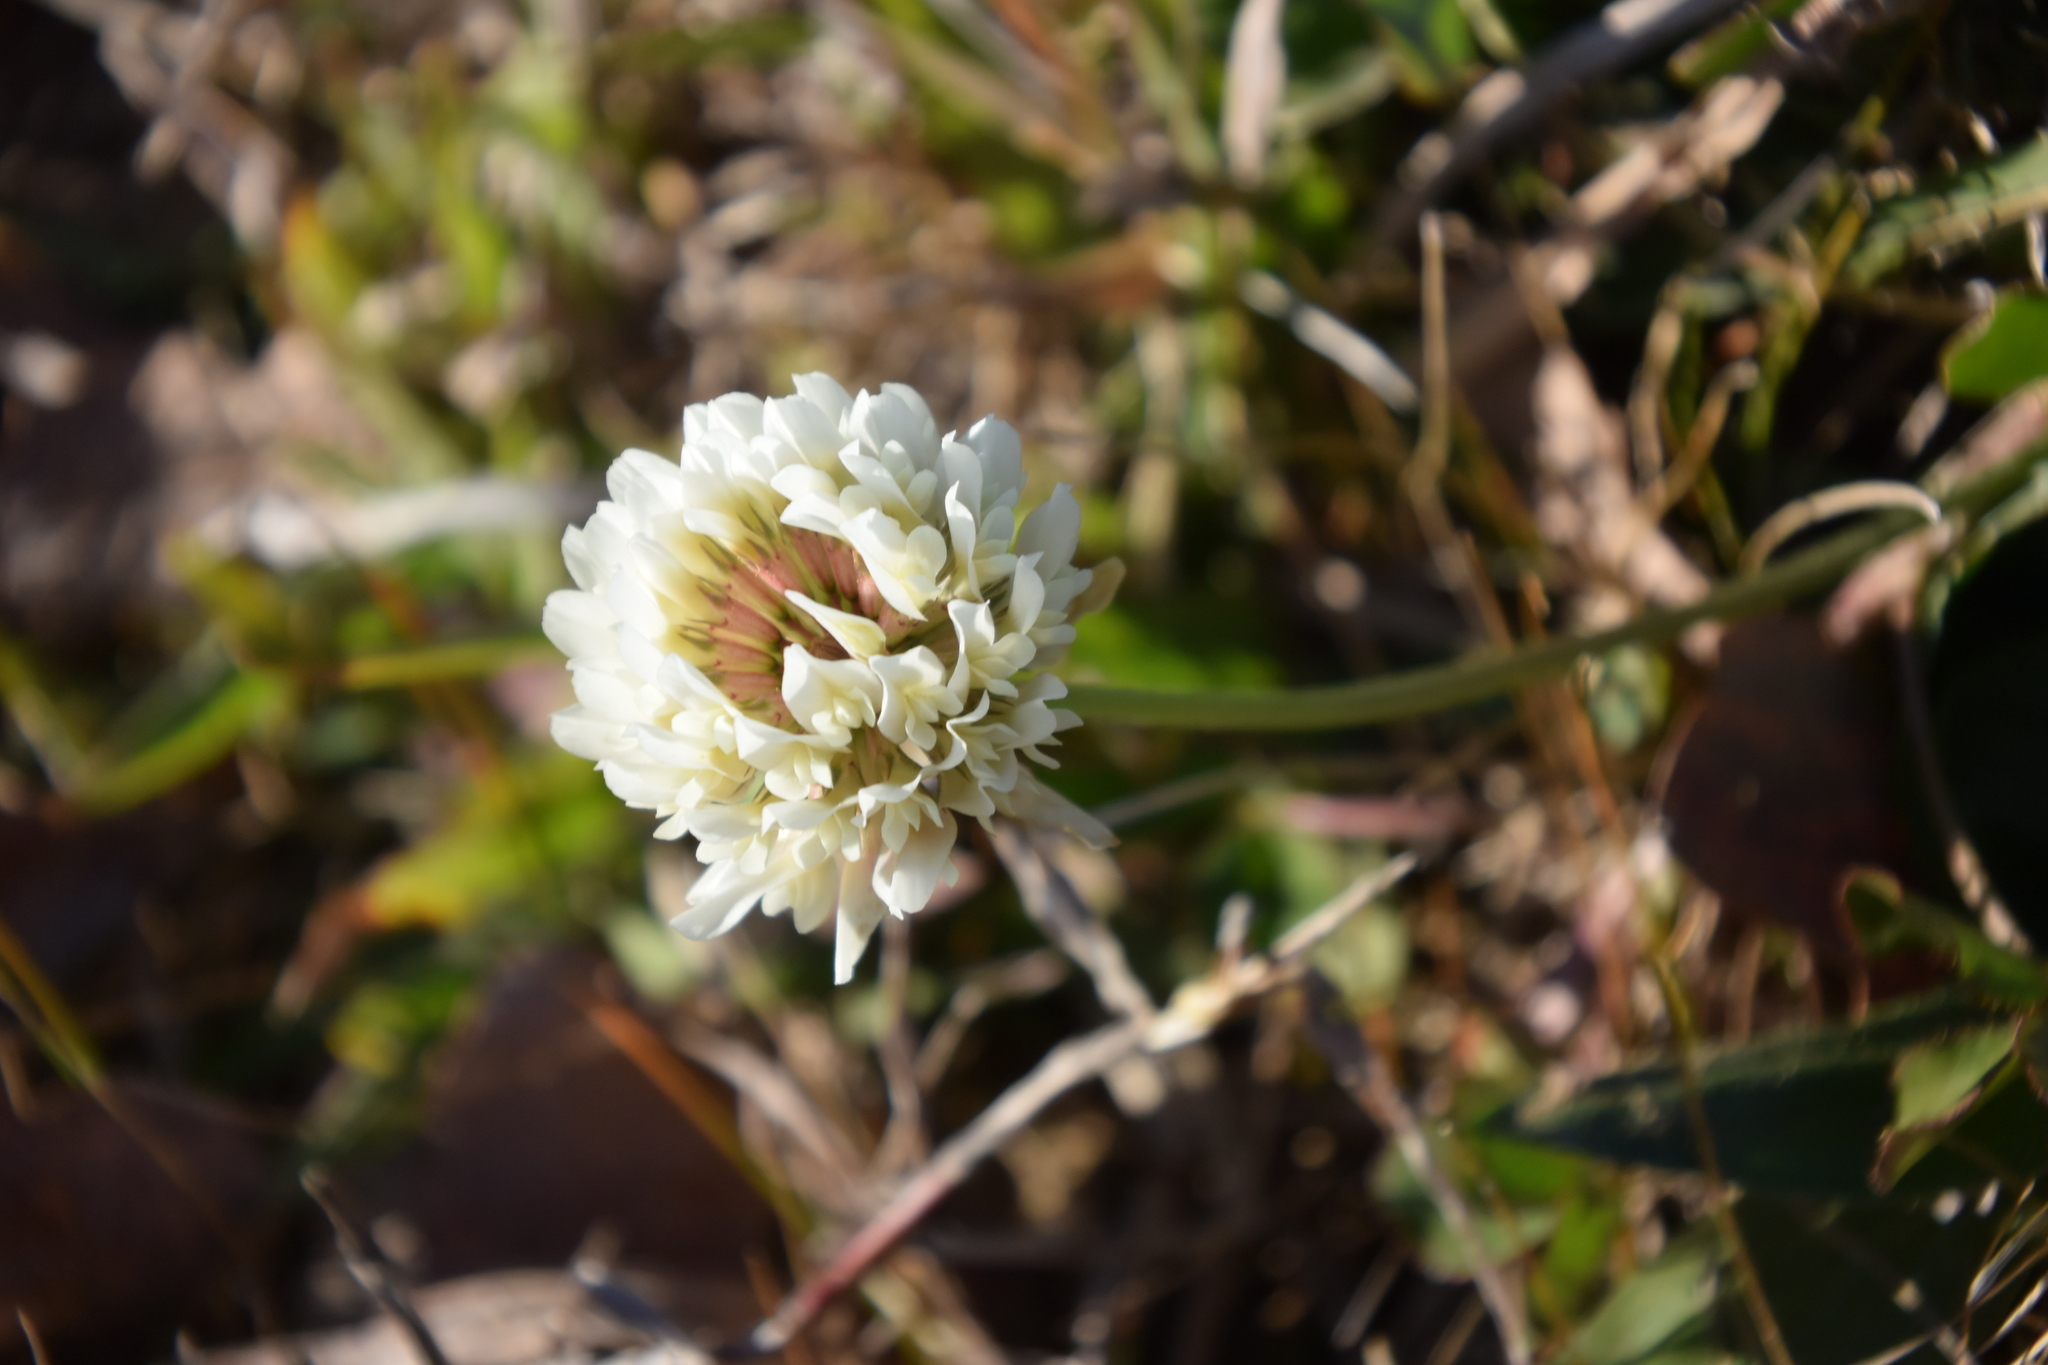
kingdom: Plantae
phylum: Tracheophyta
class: Magnoliopsida
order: Fabales
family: Fabaceae
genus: Trifolium
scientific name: Trifolium repens
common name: White clover
